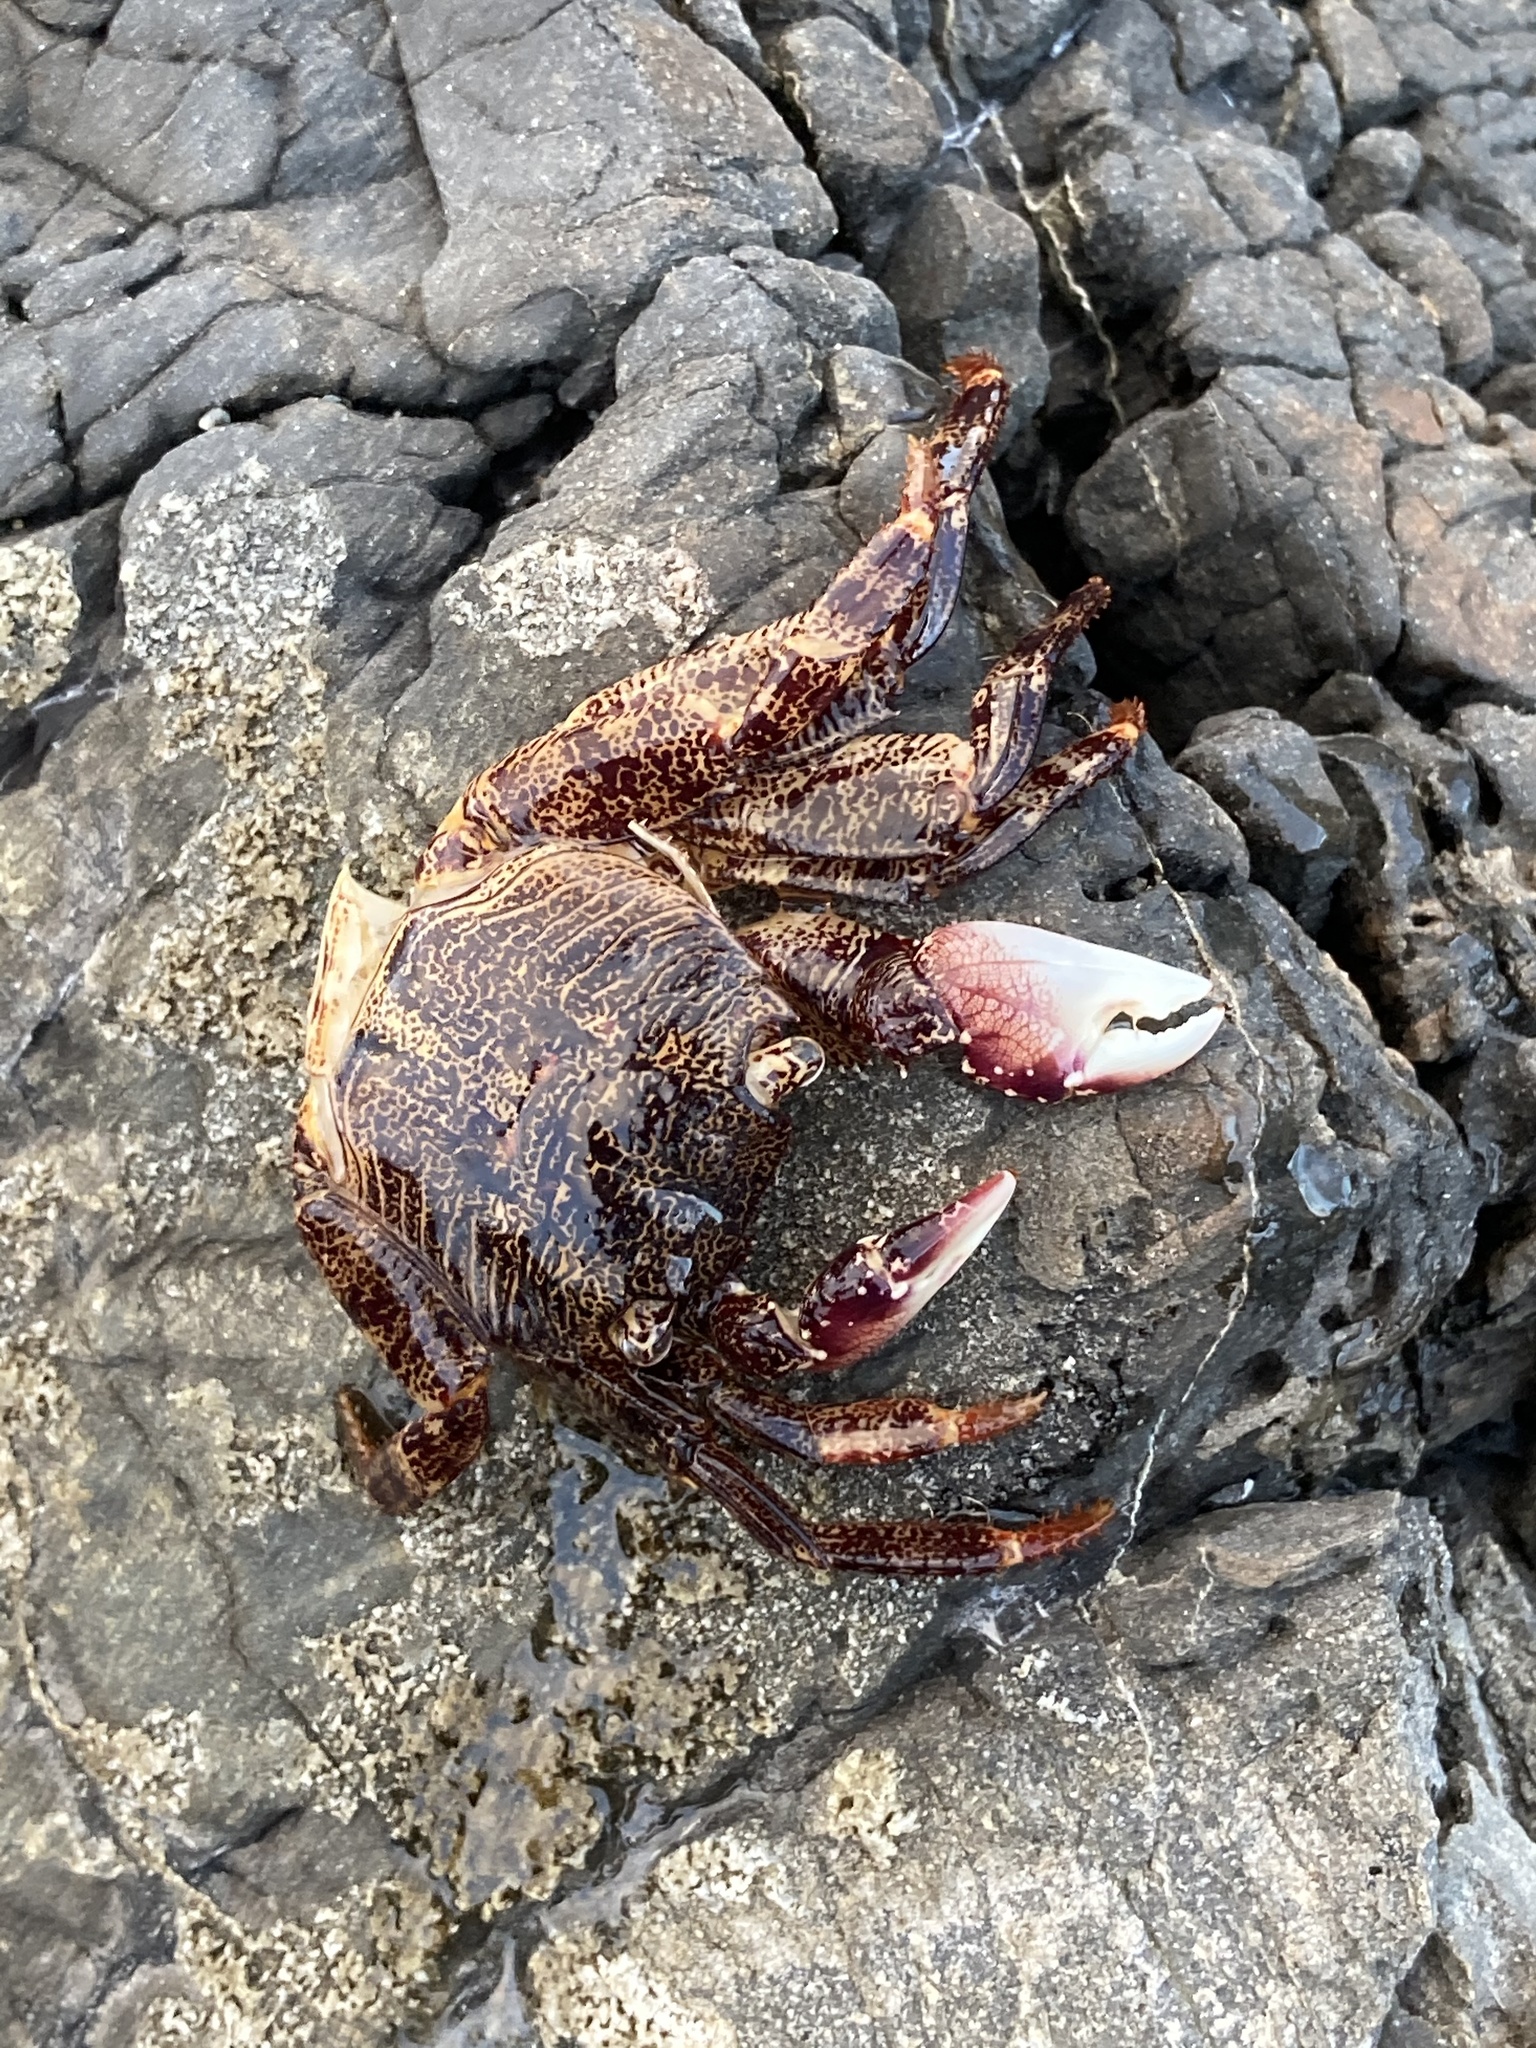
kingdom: Animalia
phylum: Arthropoda
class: Malacostraca
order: Decapoda
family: Grapsidae
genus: Leptograpsus
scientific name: Leptograpsus variegatus
